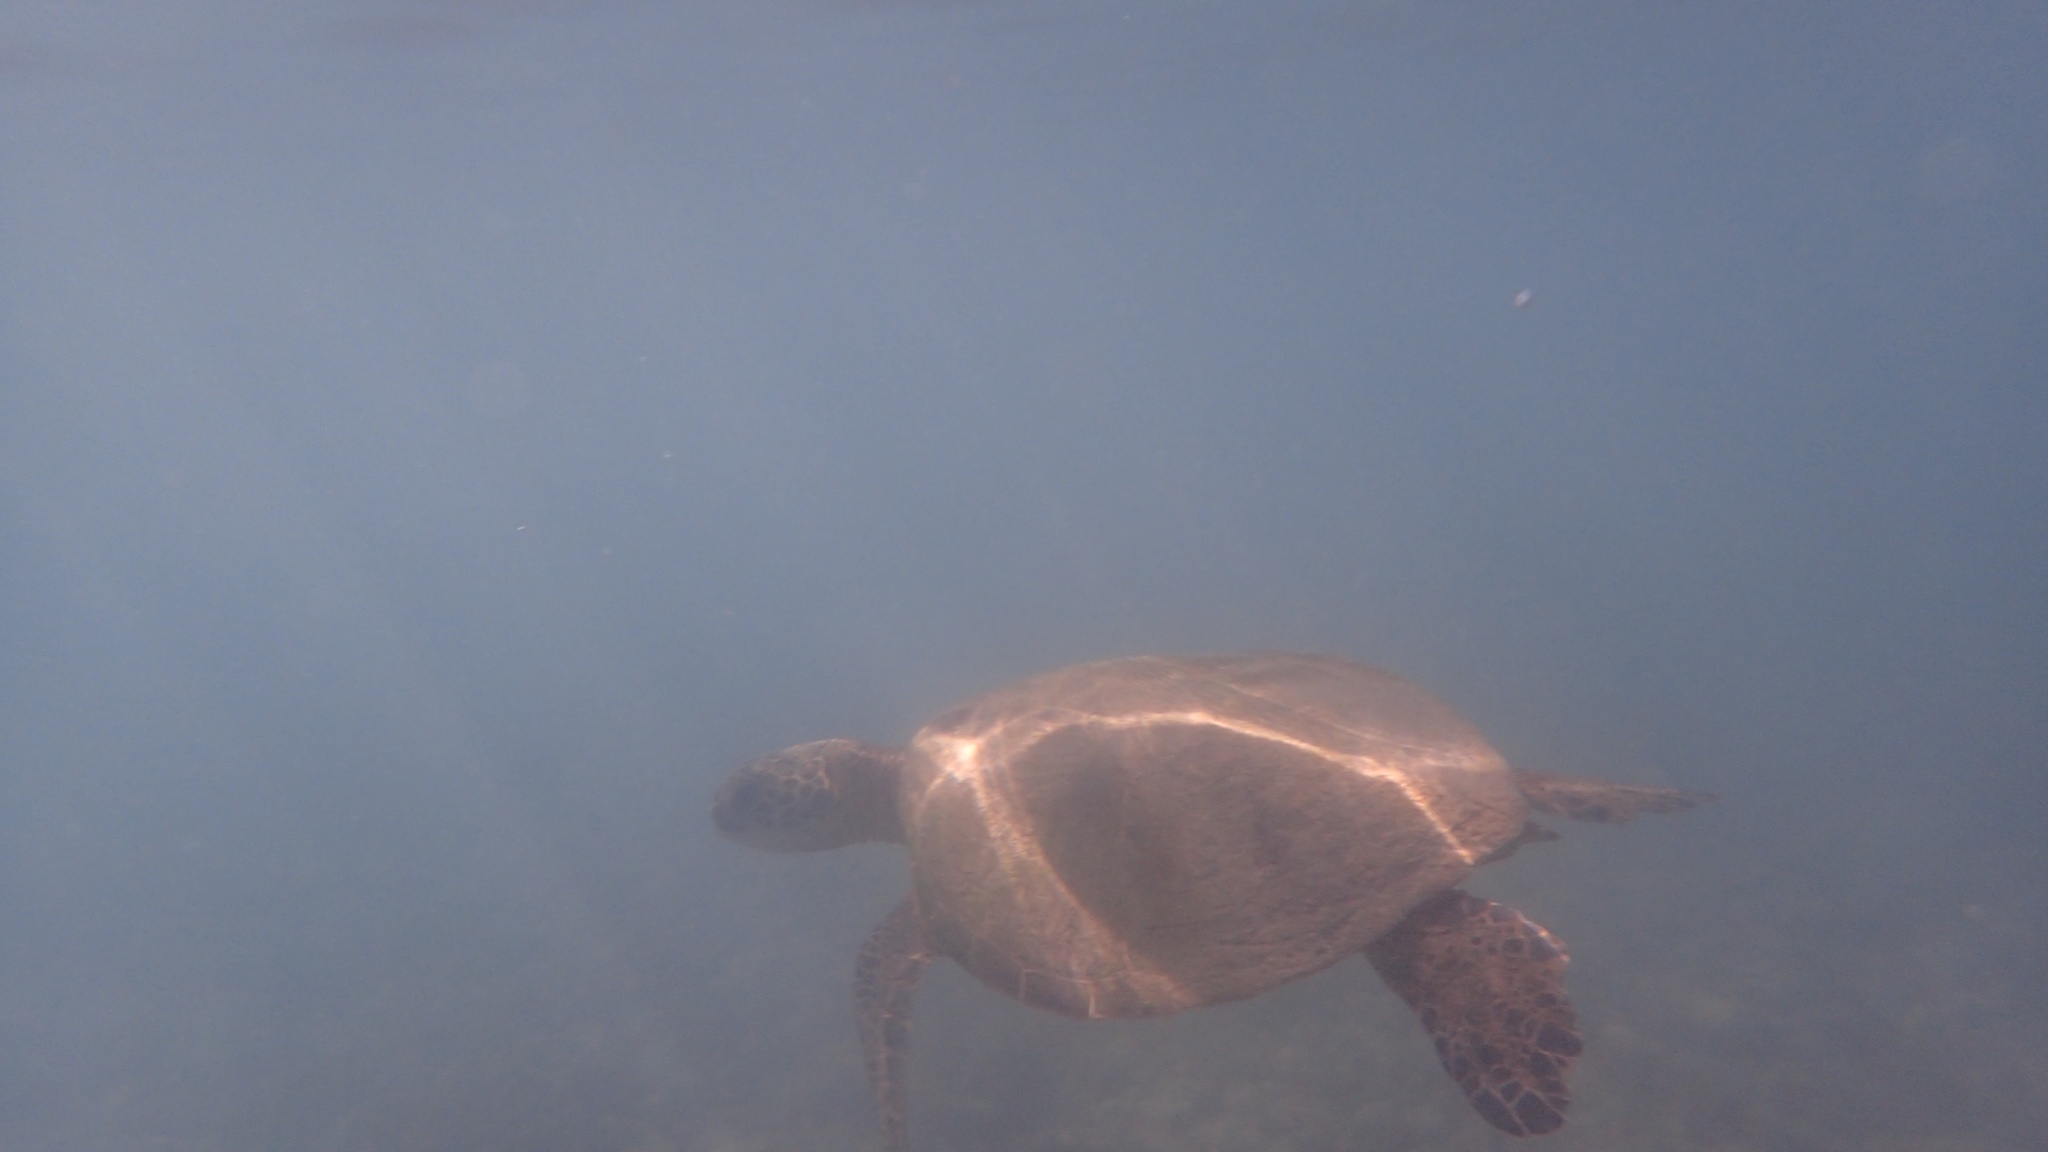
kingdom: Animalia
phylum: Chordata
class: Testudines
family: Cheloniidae
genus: Chelonia
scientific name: Chelonia mydas
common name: Green turtle
